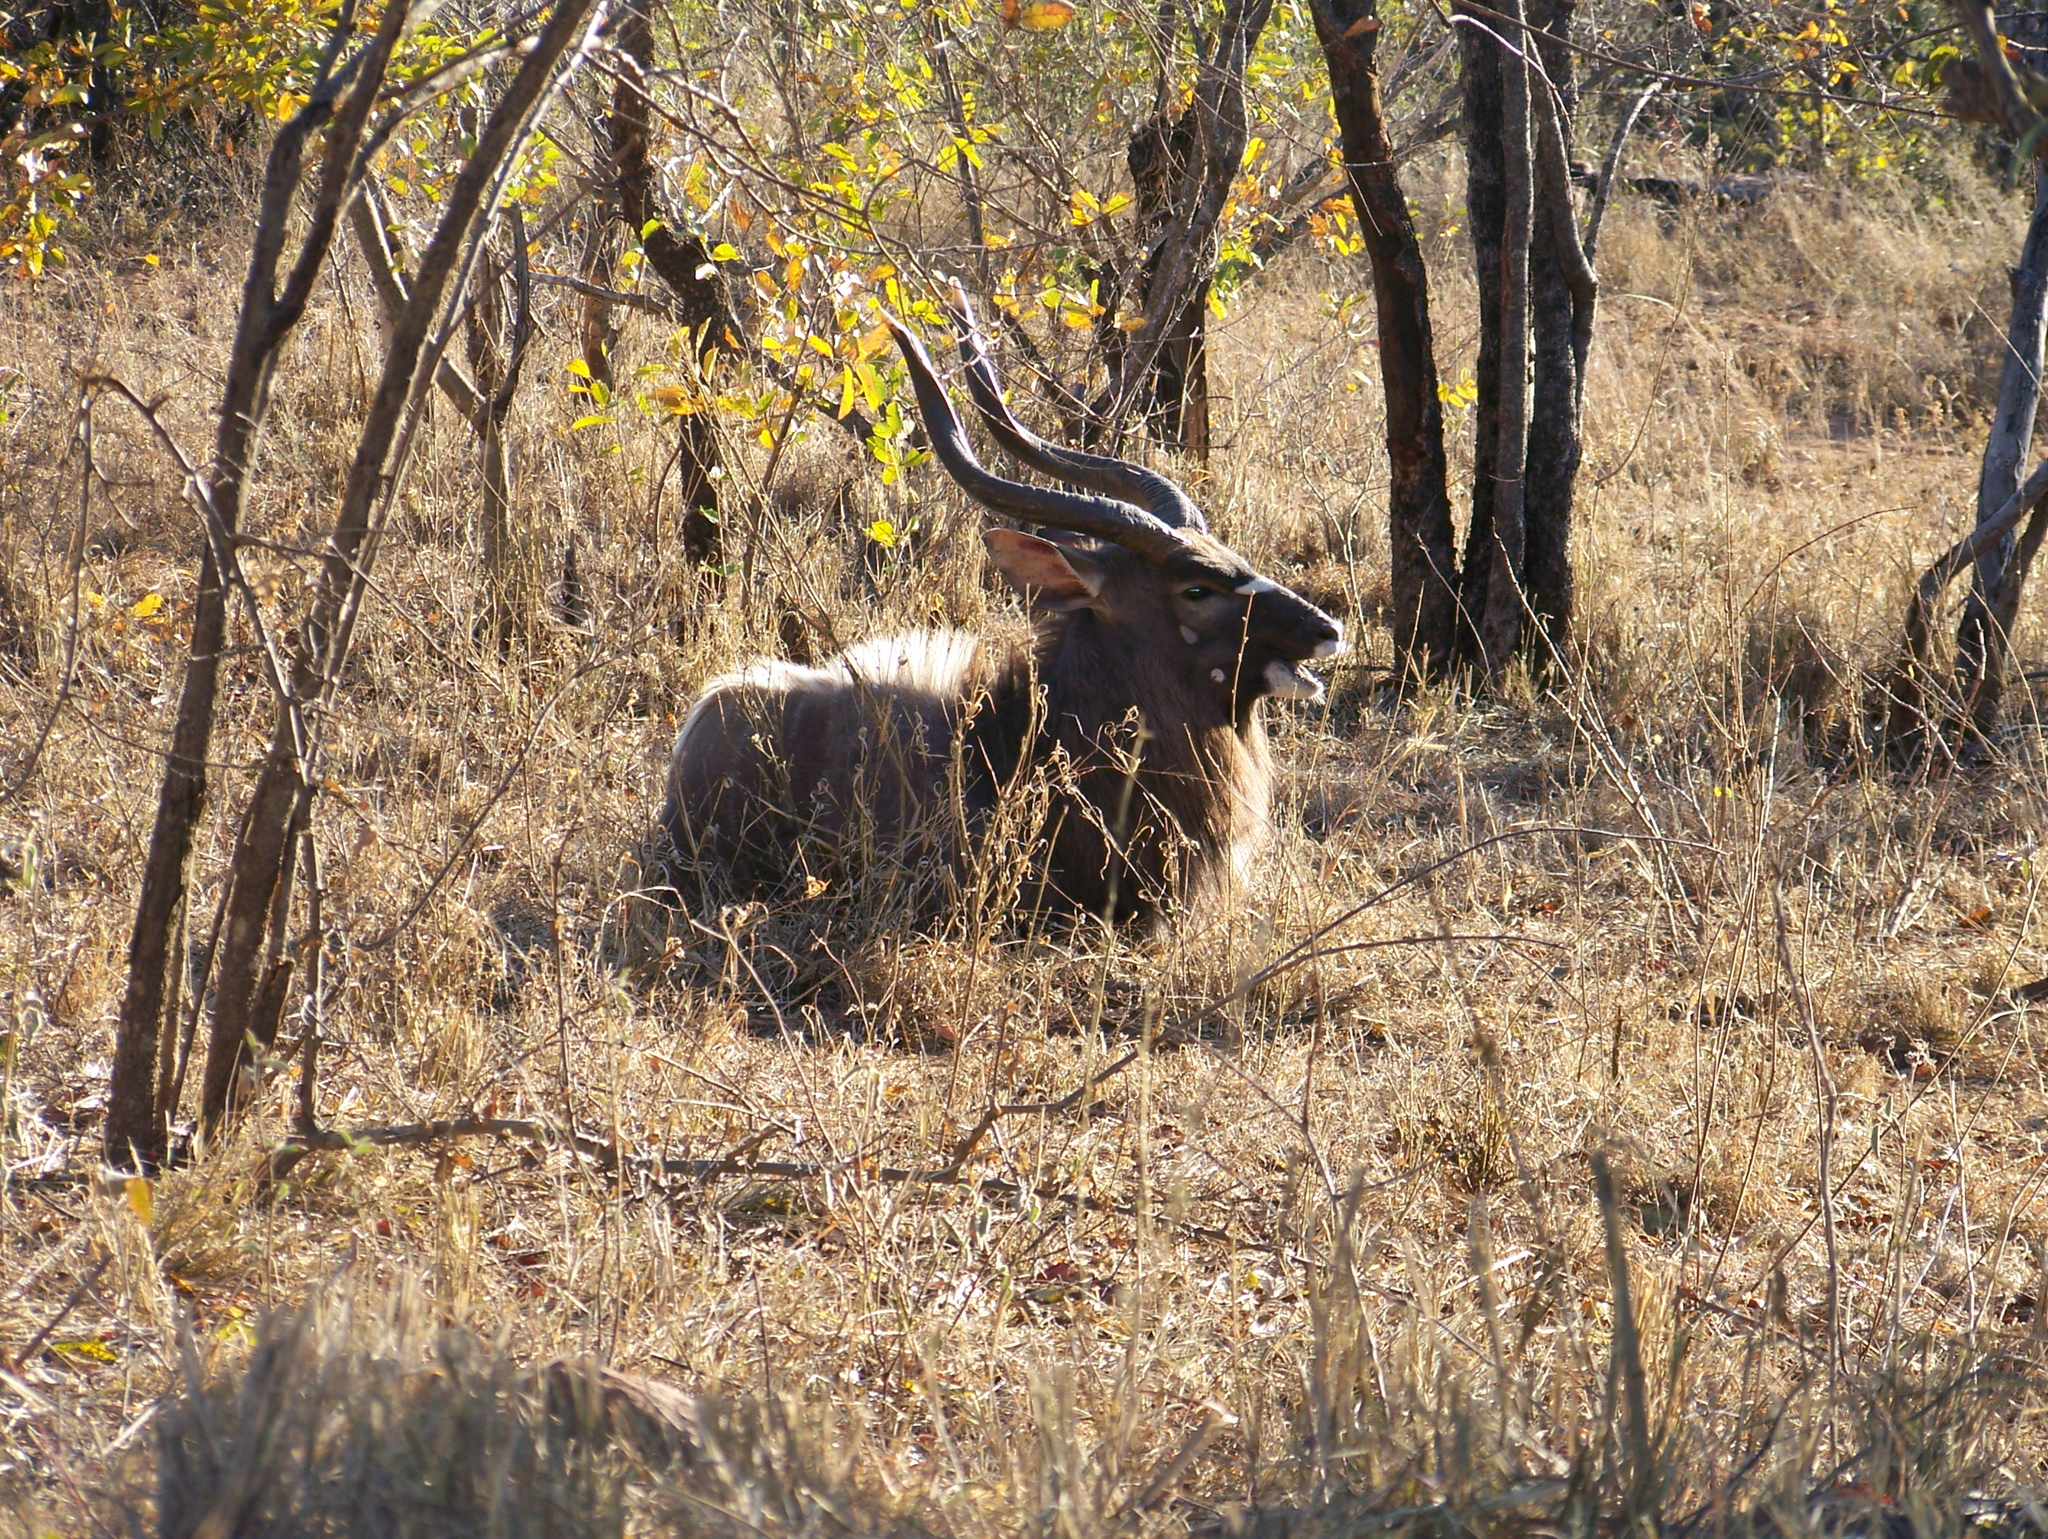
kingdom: Animalia
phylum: Chordata
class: Mammalia
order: Artiodactyla
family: Bovidae
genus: Tragelaphus
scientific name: Tragelaphus angasii
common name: Nyala
